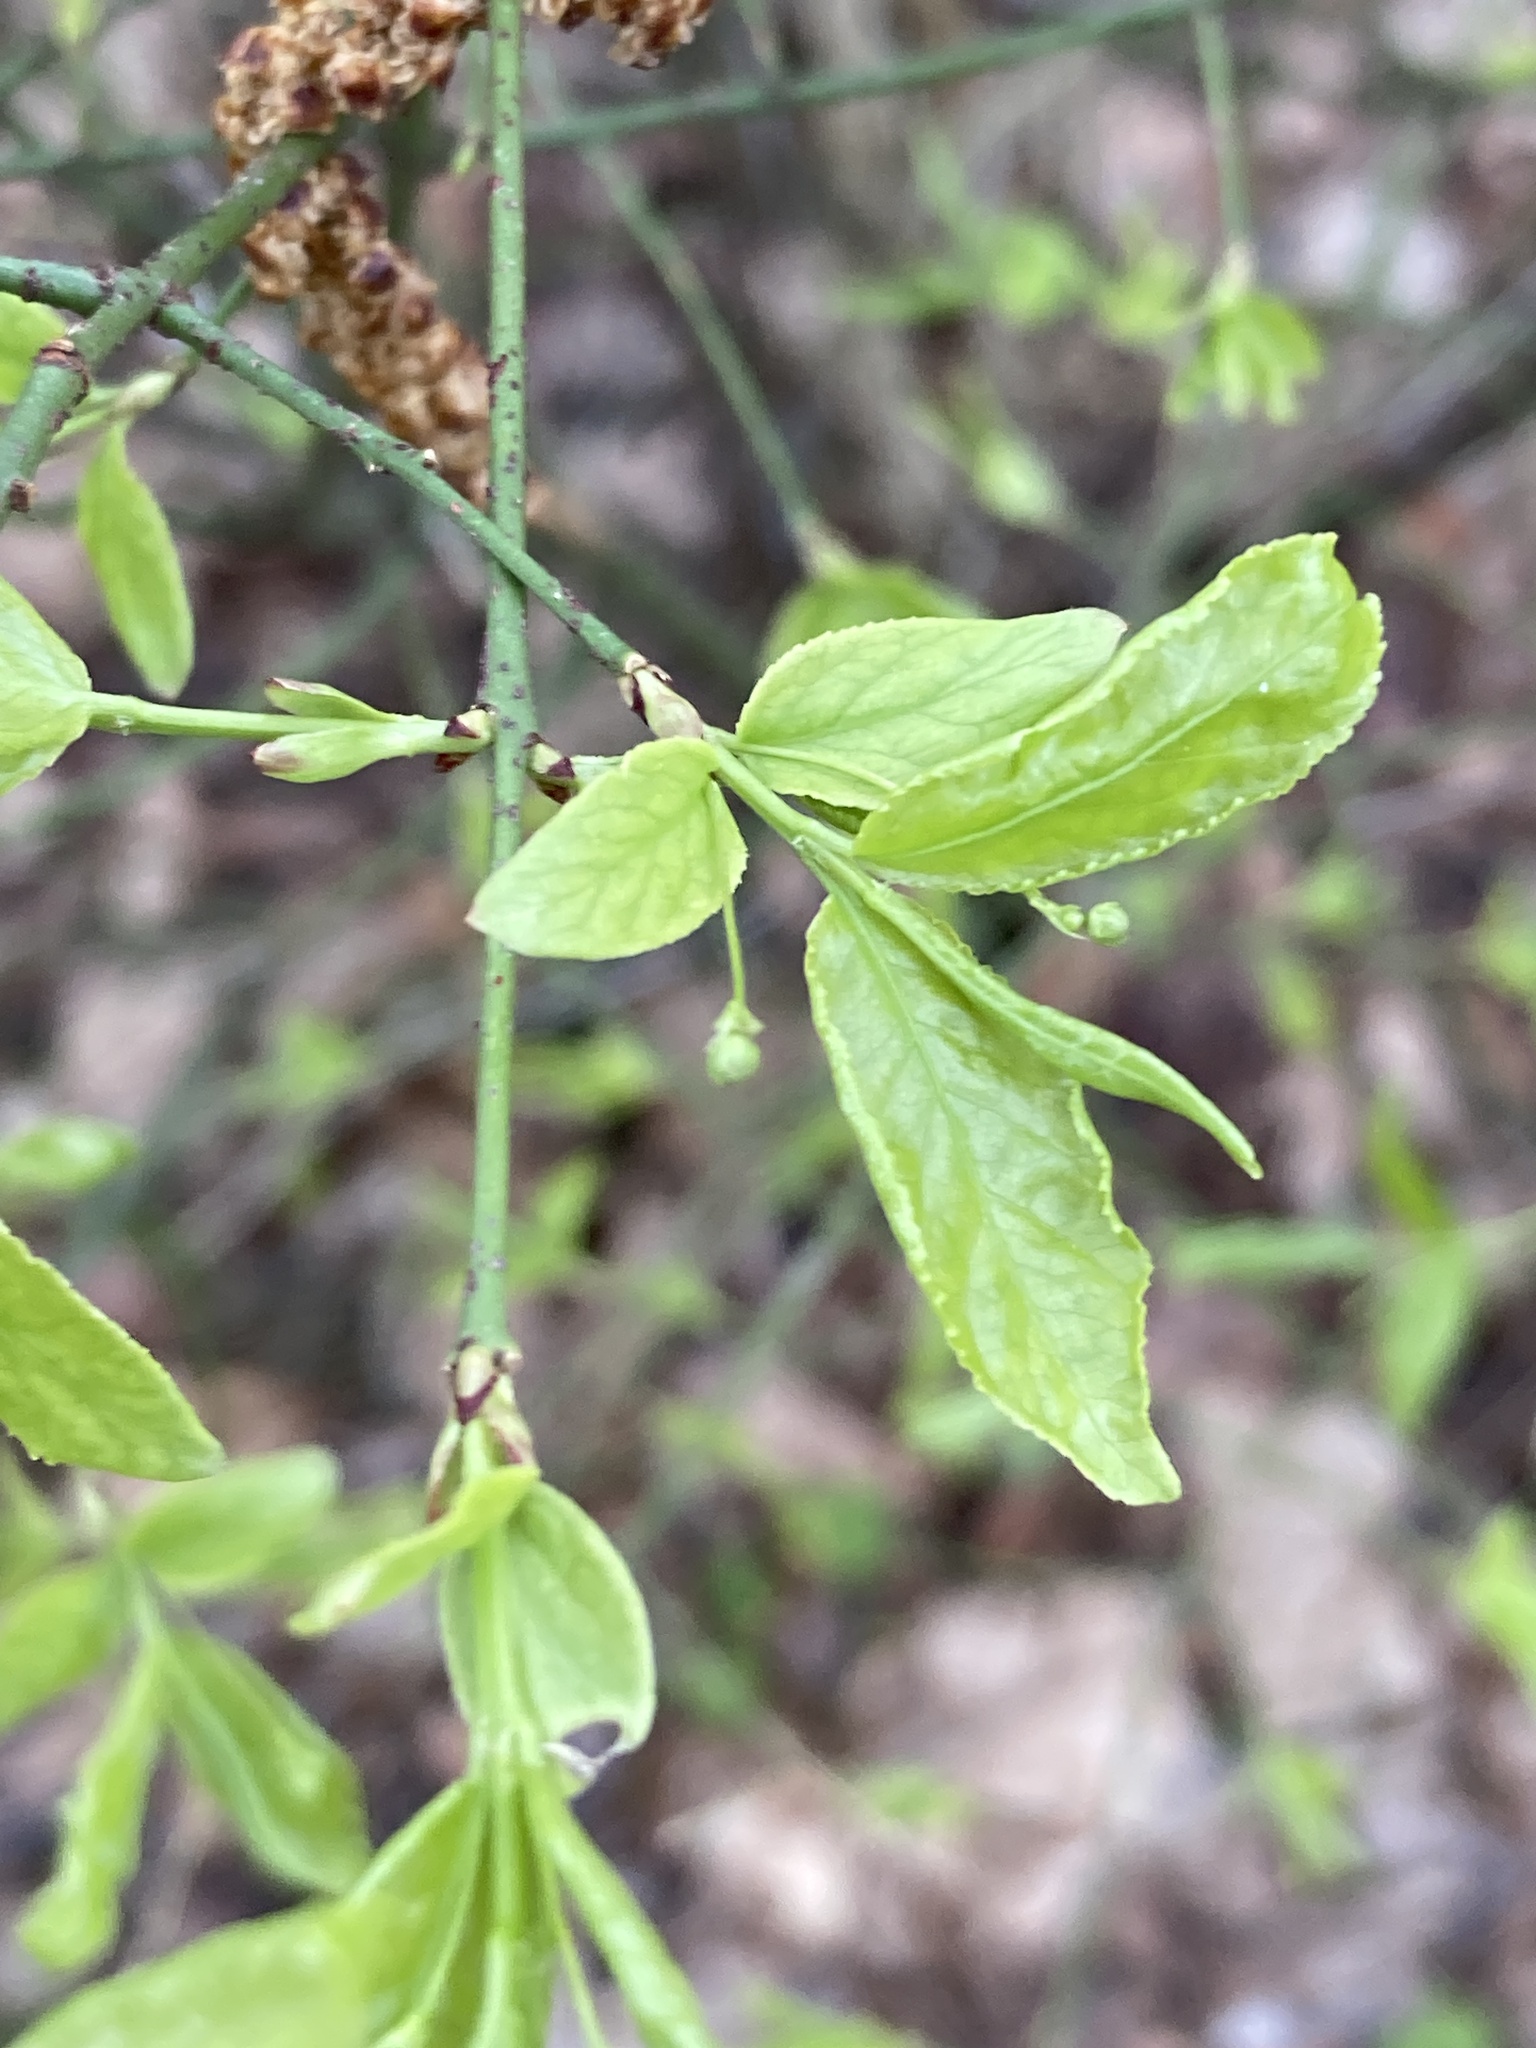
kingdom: Plantae
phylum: Tracheophyta
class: Magnoliopsida
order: Celastrales
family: Celastraceae
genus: Euonymus
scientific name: Euonymus verrucosus
